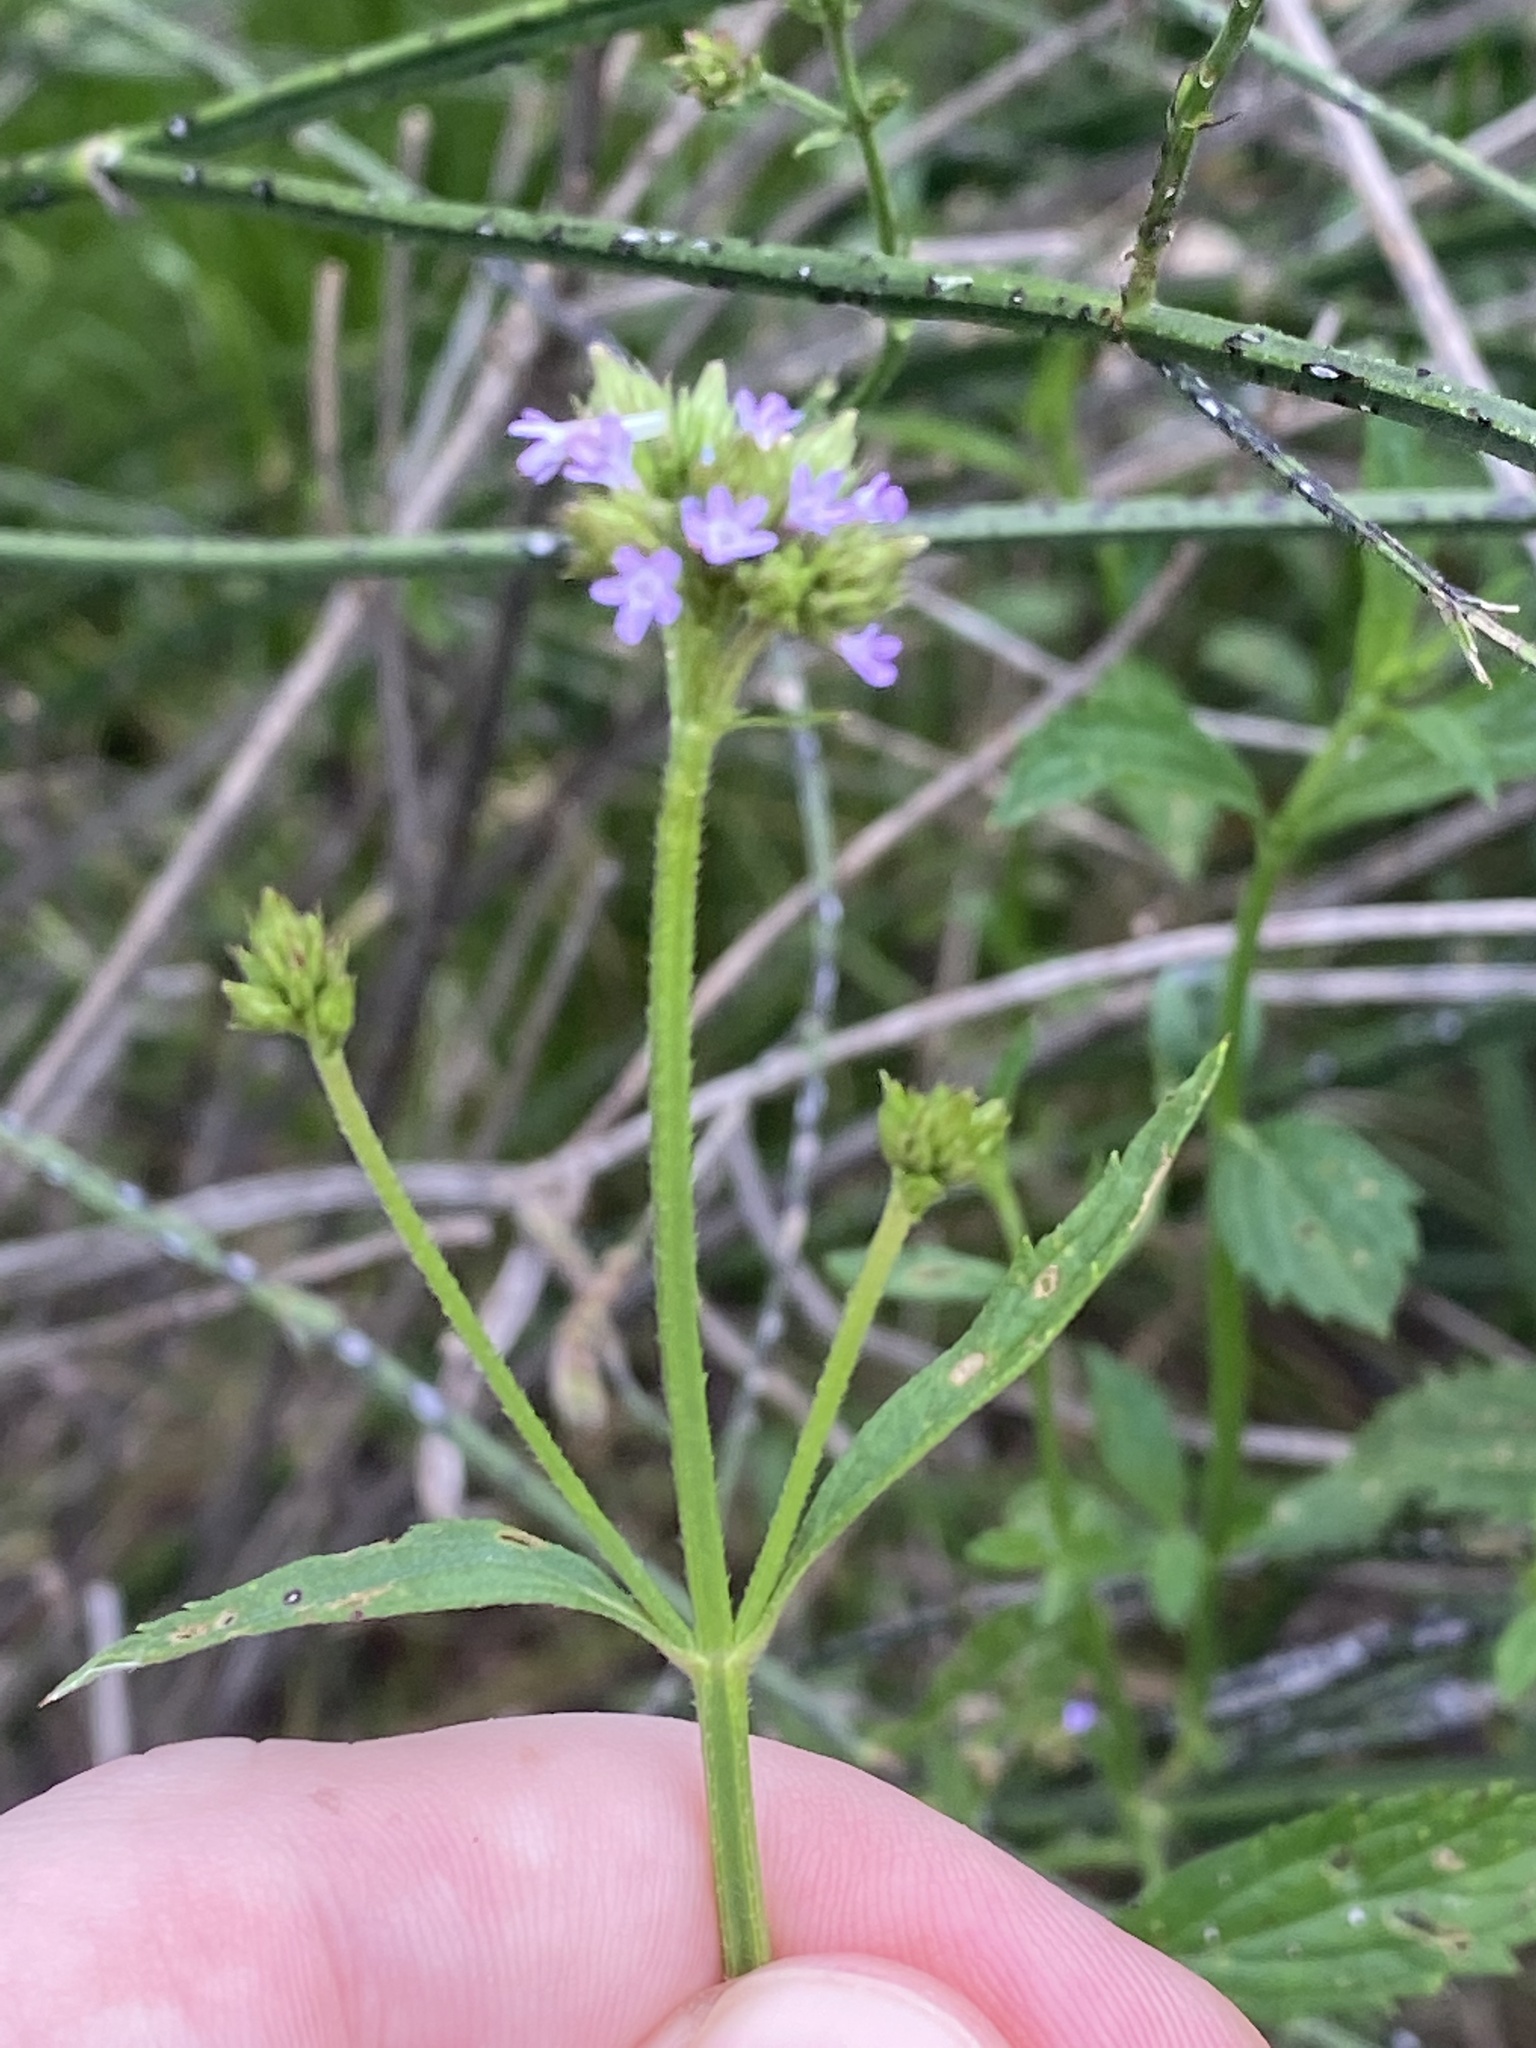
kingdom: Plantae
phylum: Tracheophyta
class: Magnoliopsida
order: Lamiales
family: Verbenaceae
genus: Verbena
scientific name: Verbena brasiliensis
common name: Brazilian vervain
